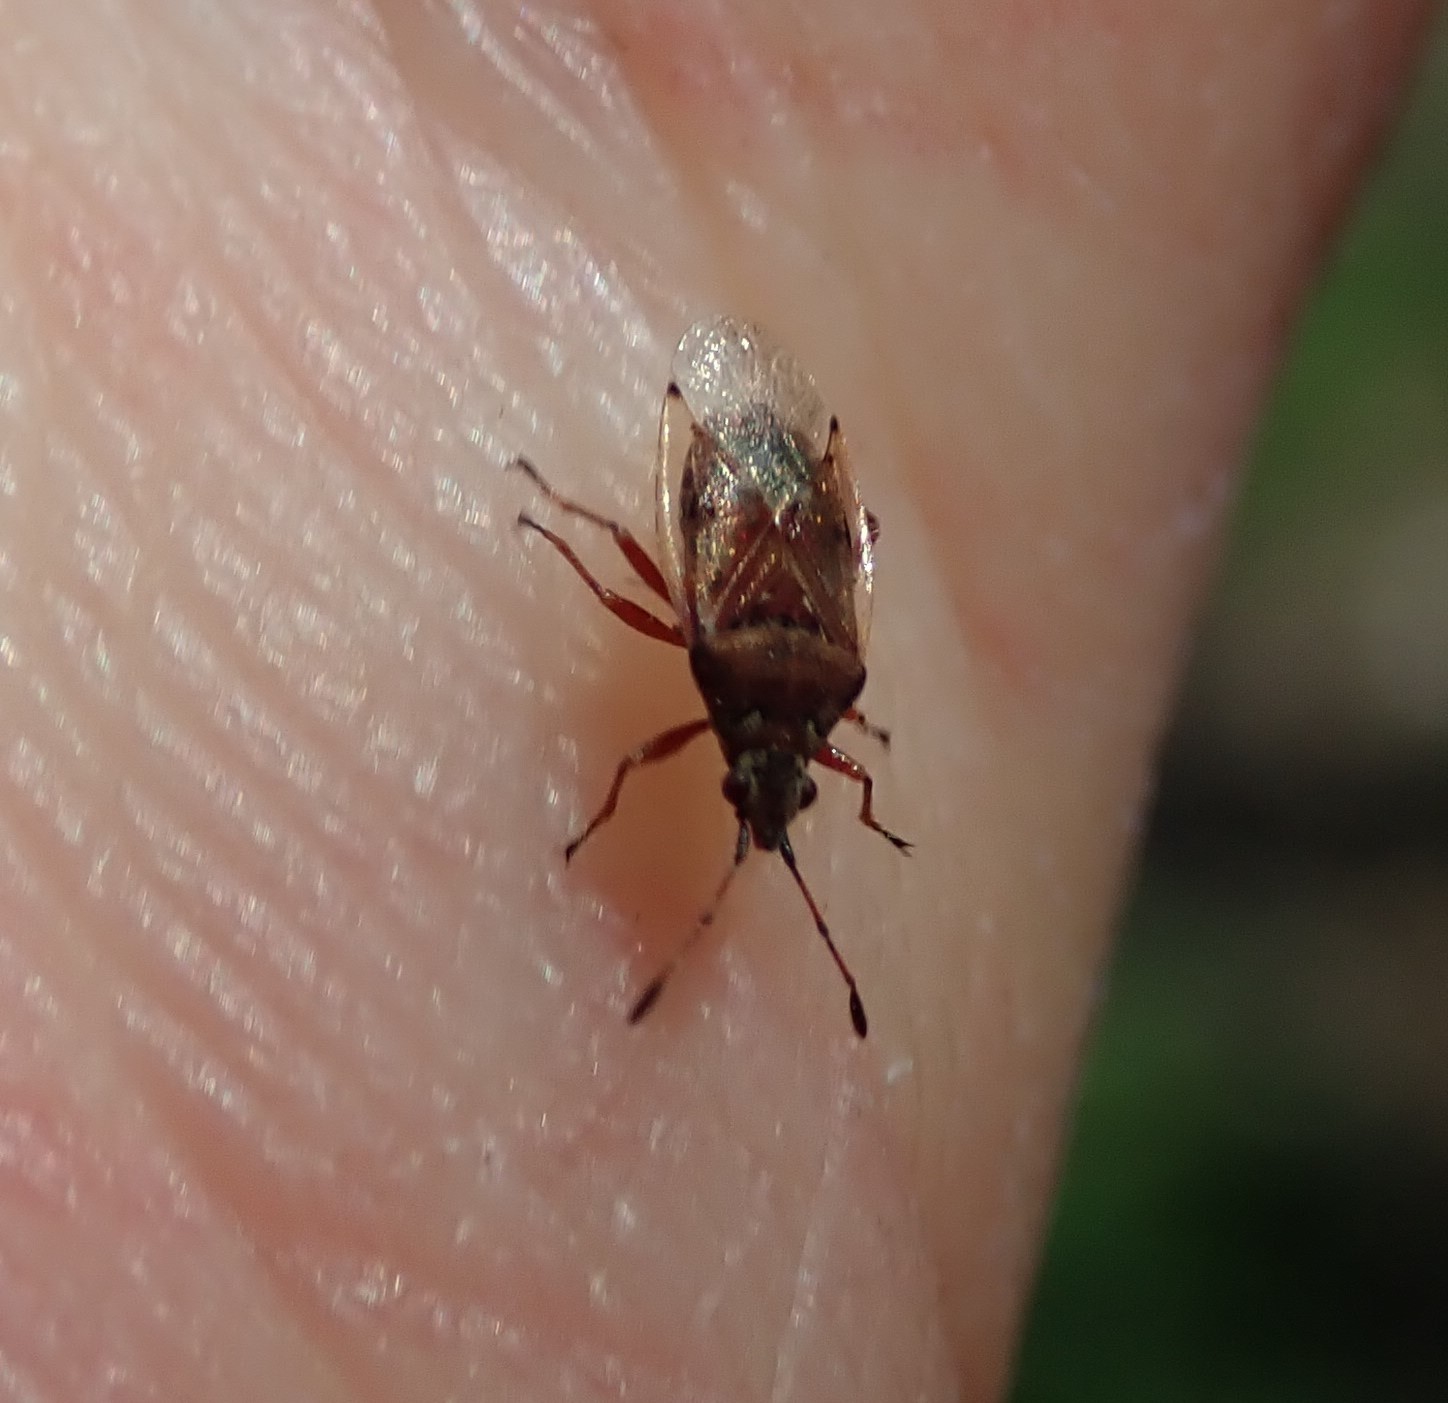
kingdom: Animalia
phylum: Arthropoda
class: Insecta
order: Hemiptera
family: Lygaeidae
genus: Kleidocerys
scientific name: Kleidocerys resedae
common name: Birch catkin bug
